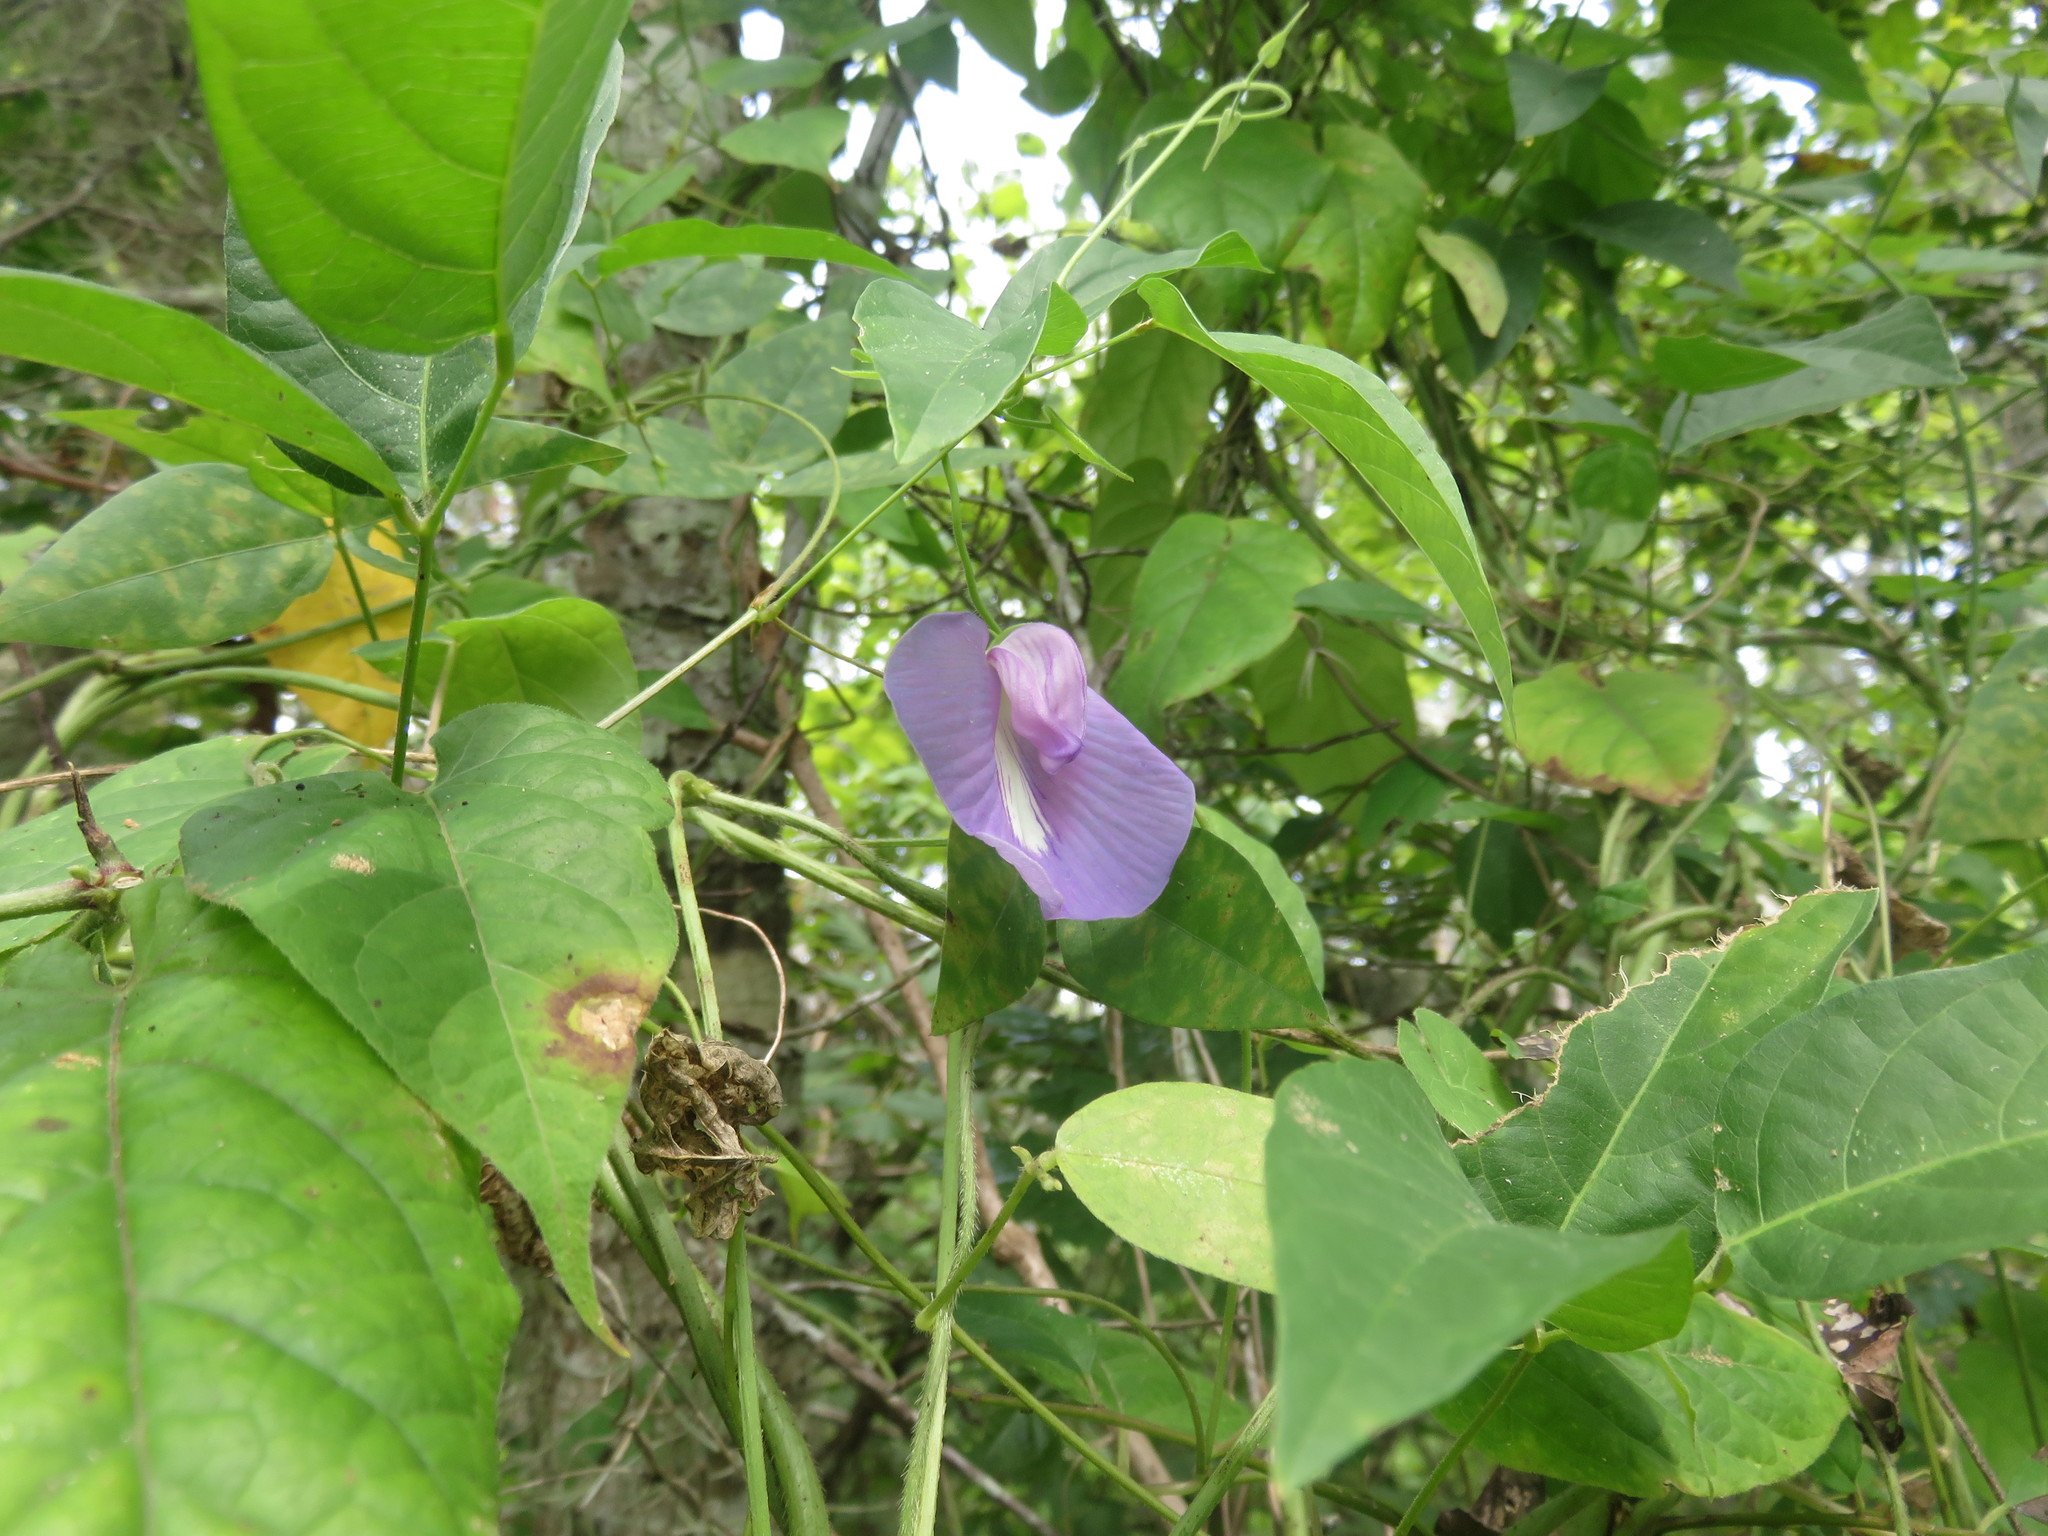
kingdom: Plantae
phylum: Tracheophyta
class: Magnoliopsida
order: Fabales
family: Fabaceae
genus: Centrosema
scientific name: Centrosema virginianum
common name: Butterfly-pea
